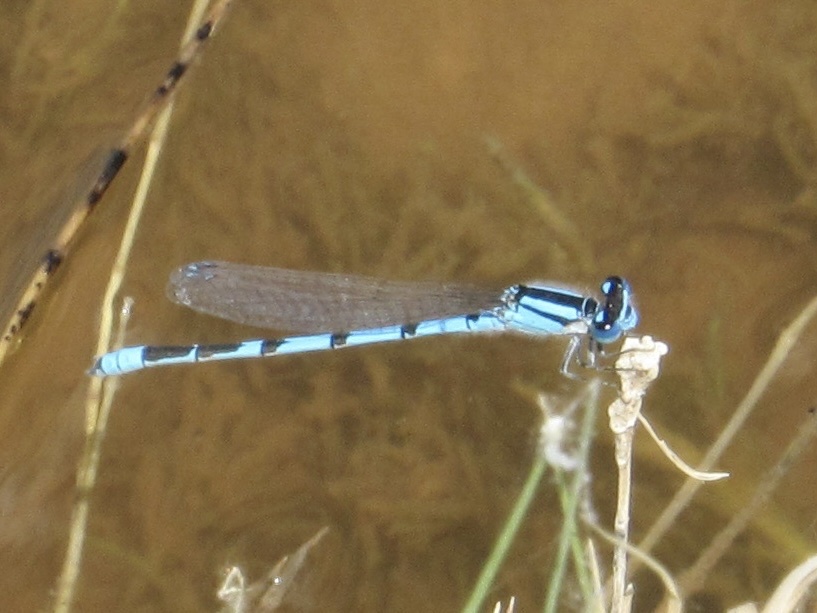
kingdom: Animalia
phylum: Arthropoda
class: Insecta
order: Odonata
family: Coenagrionidae
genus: Enallagma
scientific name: Enallagma civile
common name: Damselfly
